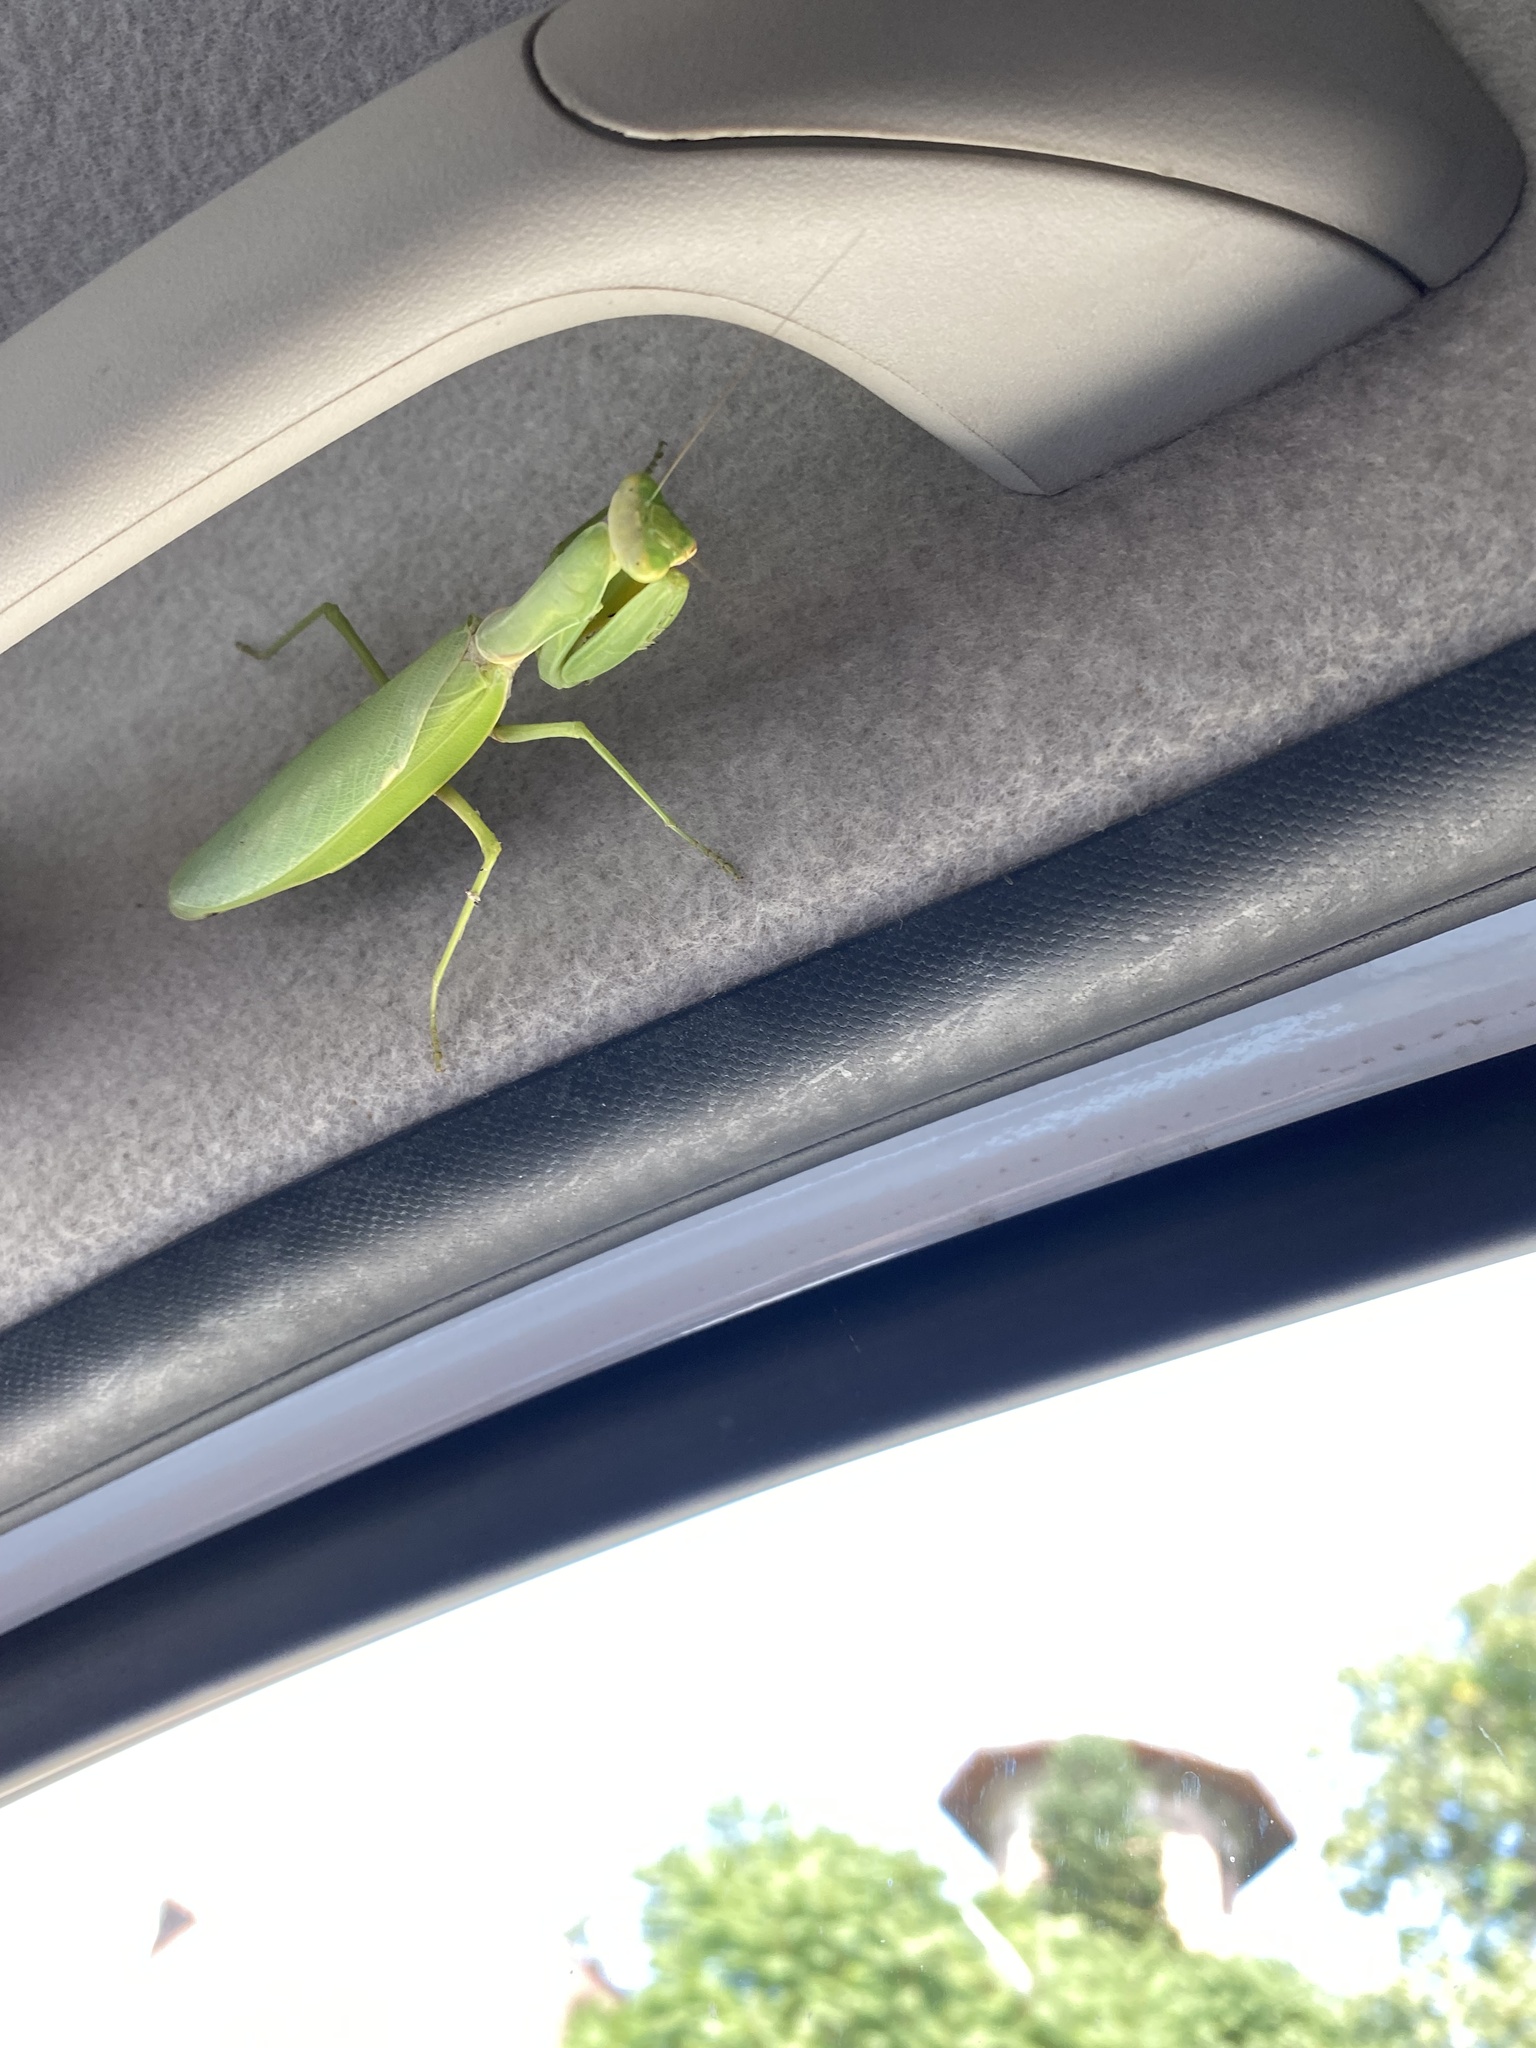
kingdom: Animalia
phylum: Arthropoda
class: Insecta
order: Mantodea
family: Mantidae
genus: Hierodula
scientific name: Hierodula transcaucasica
